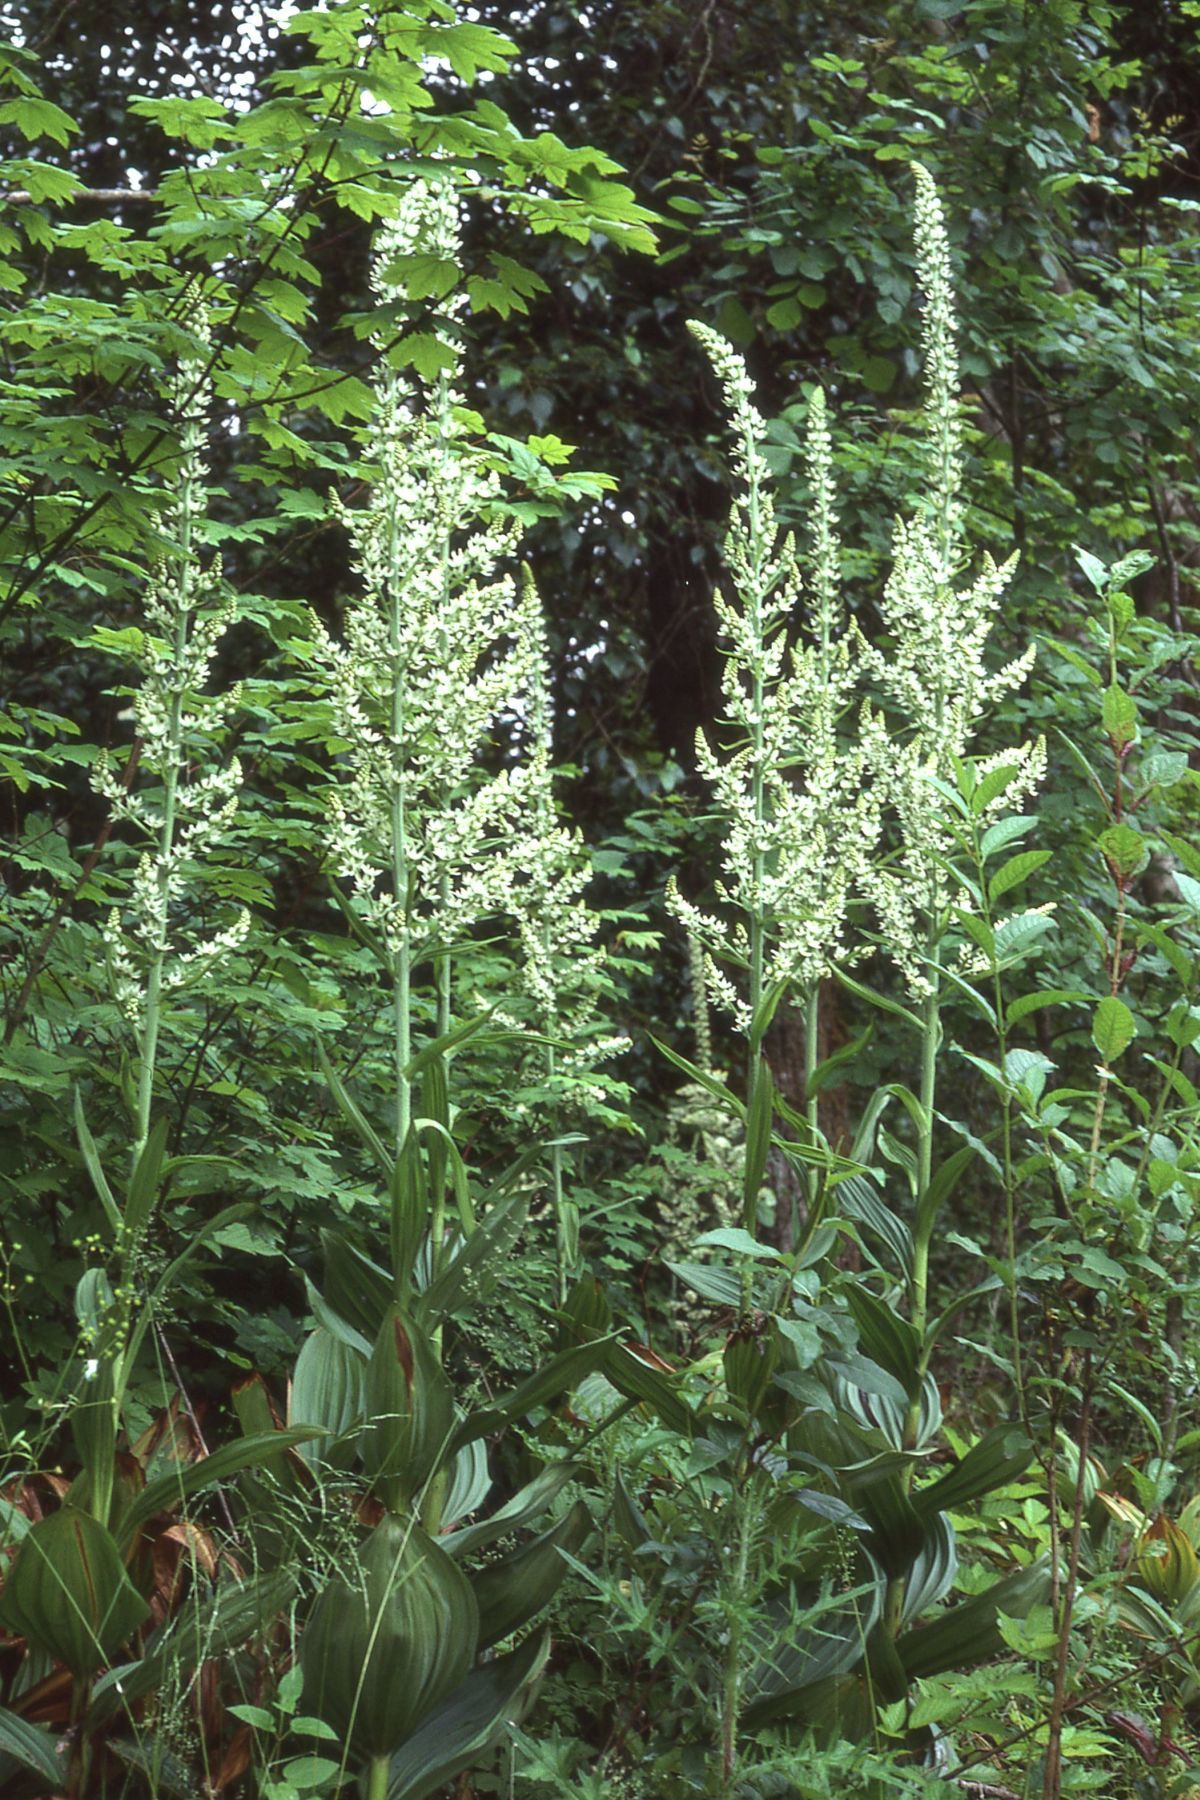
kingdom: Plantae
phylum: Tracheophyta
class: Liliopsida
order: Liliales
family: Melanthiaceae
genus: Veratrum
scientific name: Veratrum californicum
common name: California veratrum
